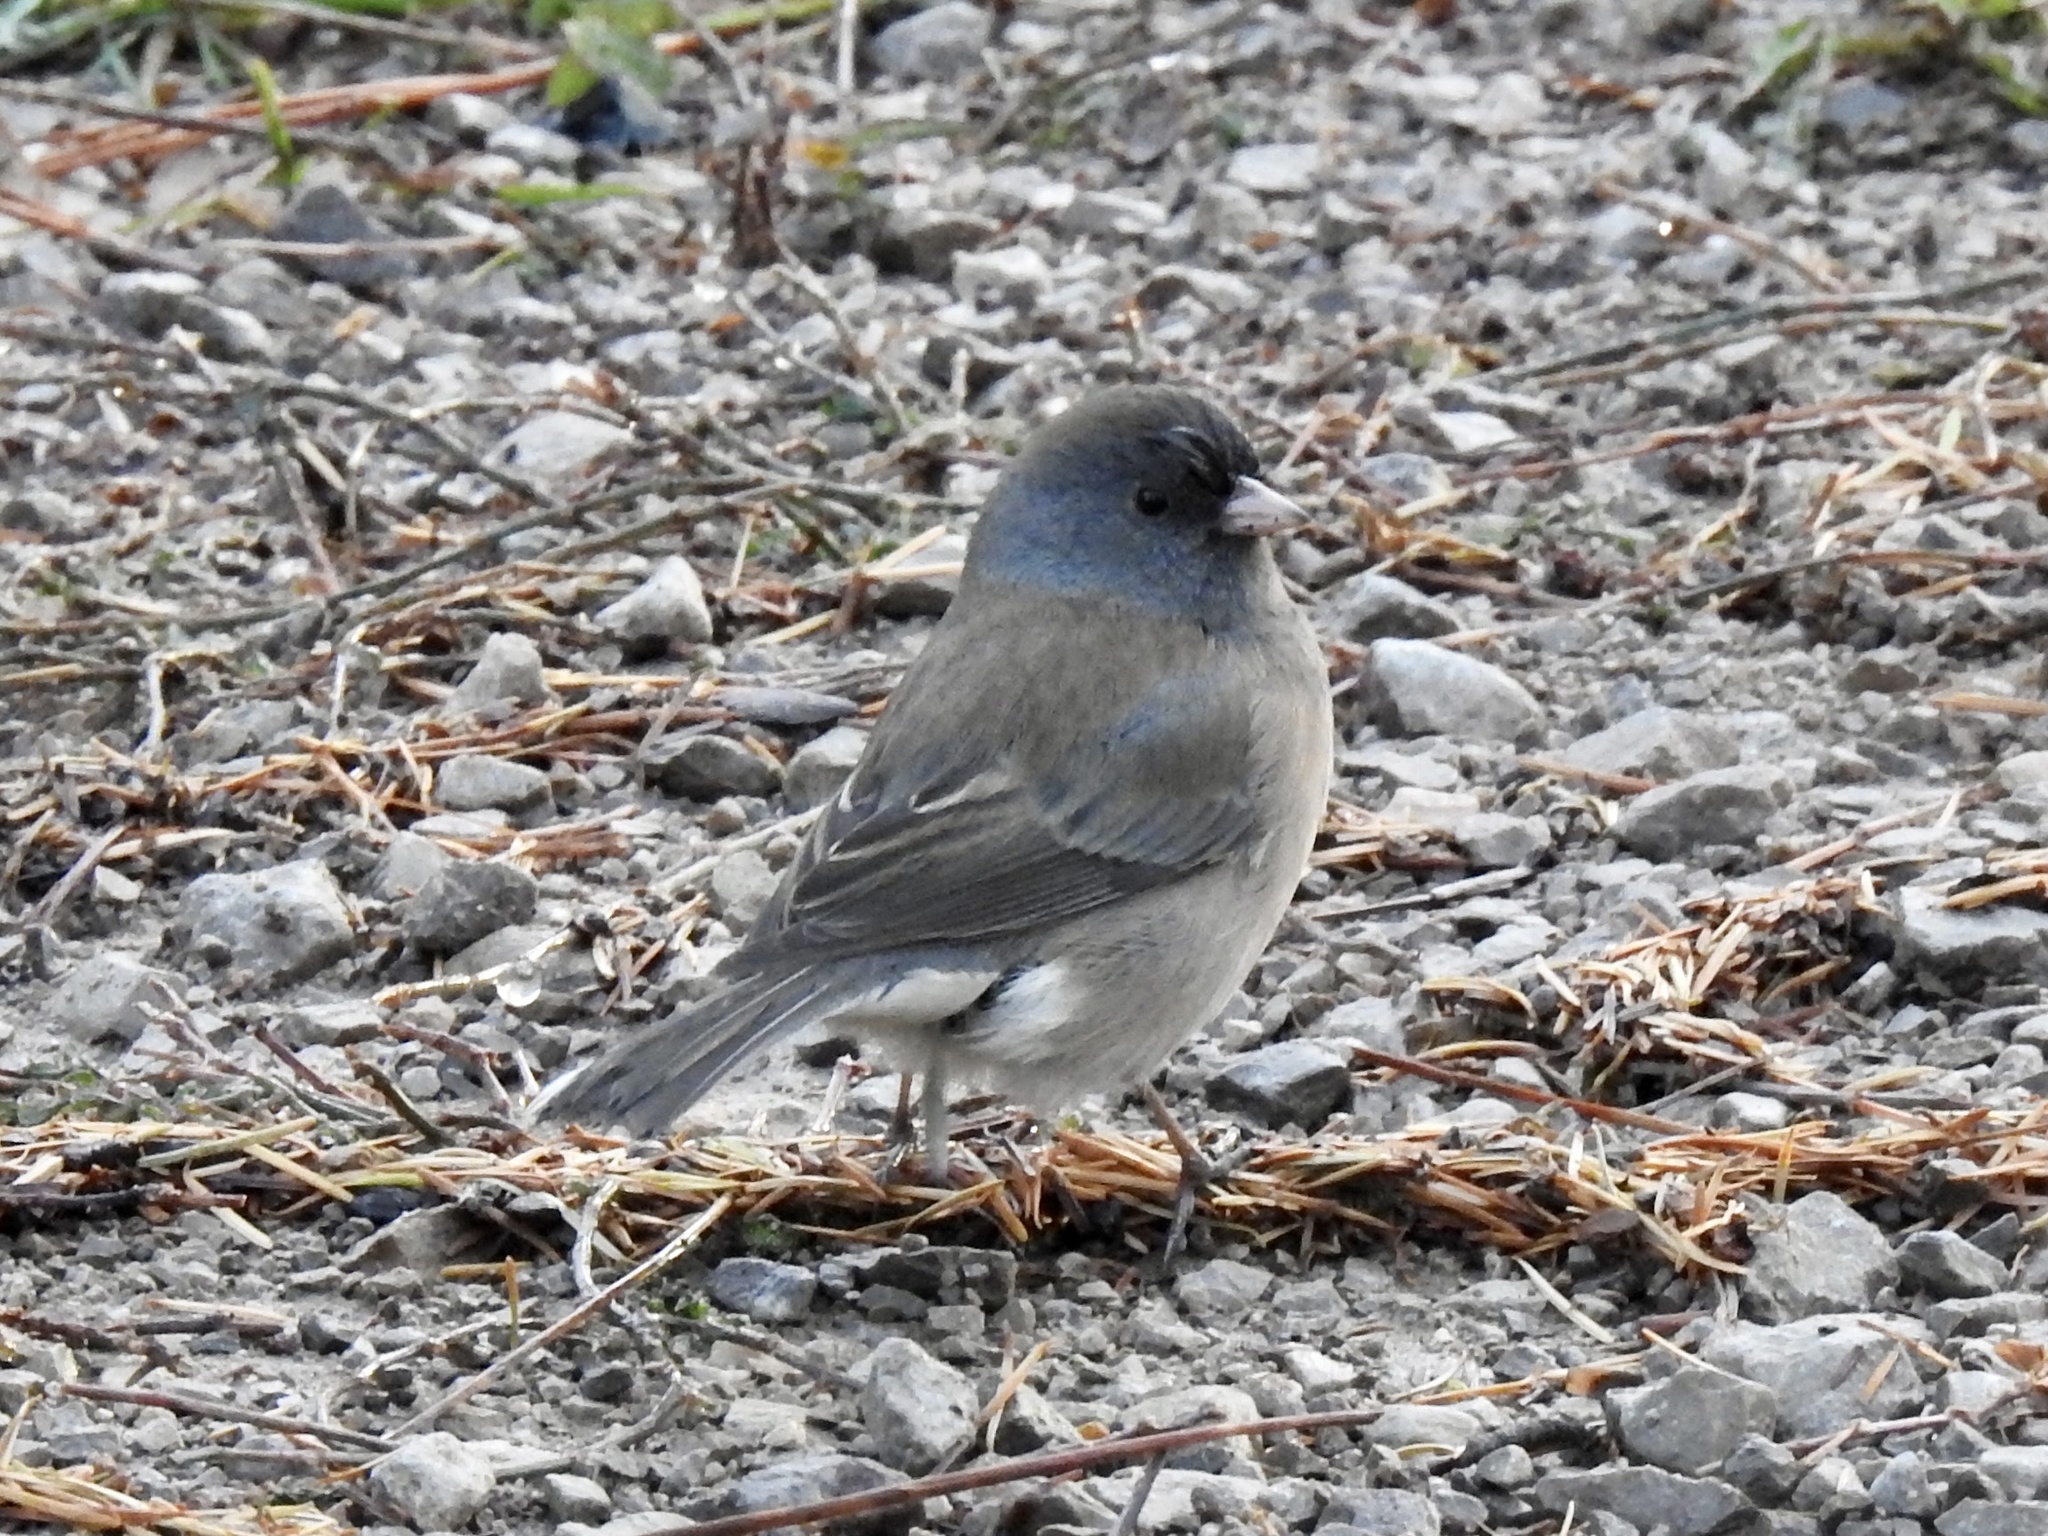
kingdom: Animalia
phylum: Chordata
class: Aves
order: Passeriformes
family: Passerellidae
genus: Junco
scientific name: Junco hyemalis
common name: Dark-eyed junco
